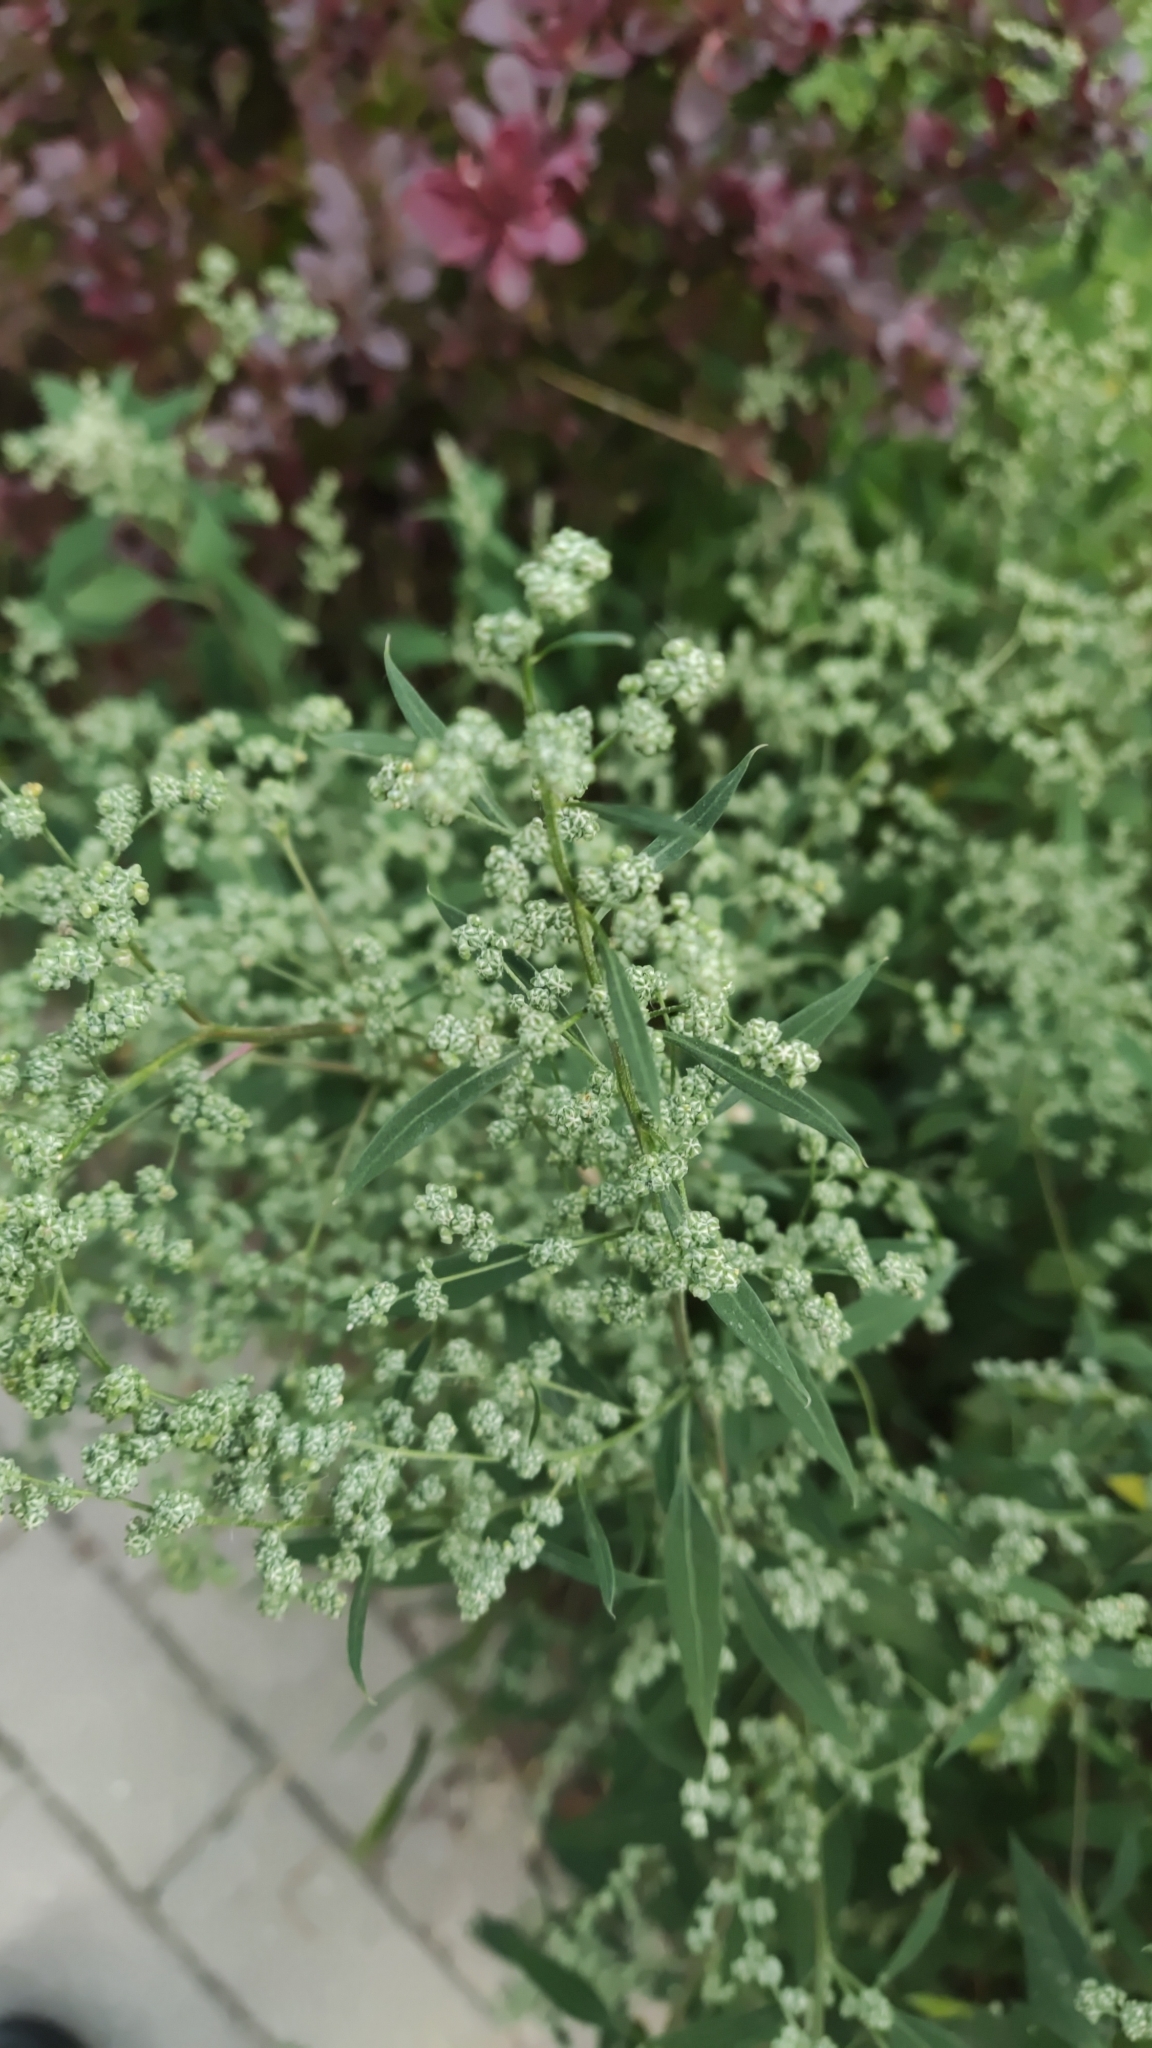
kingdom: Plantae
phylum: Tracheophyta
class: Magnoliopsida
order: Caryophyllales
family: Amaranthaceae
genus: Chenopodium
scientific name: Chenopodium album
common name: Fat-hen
